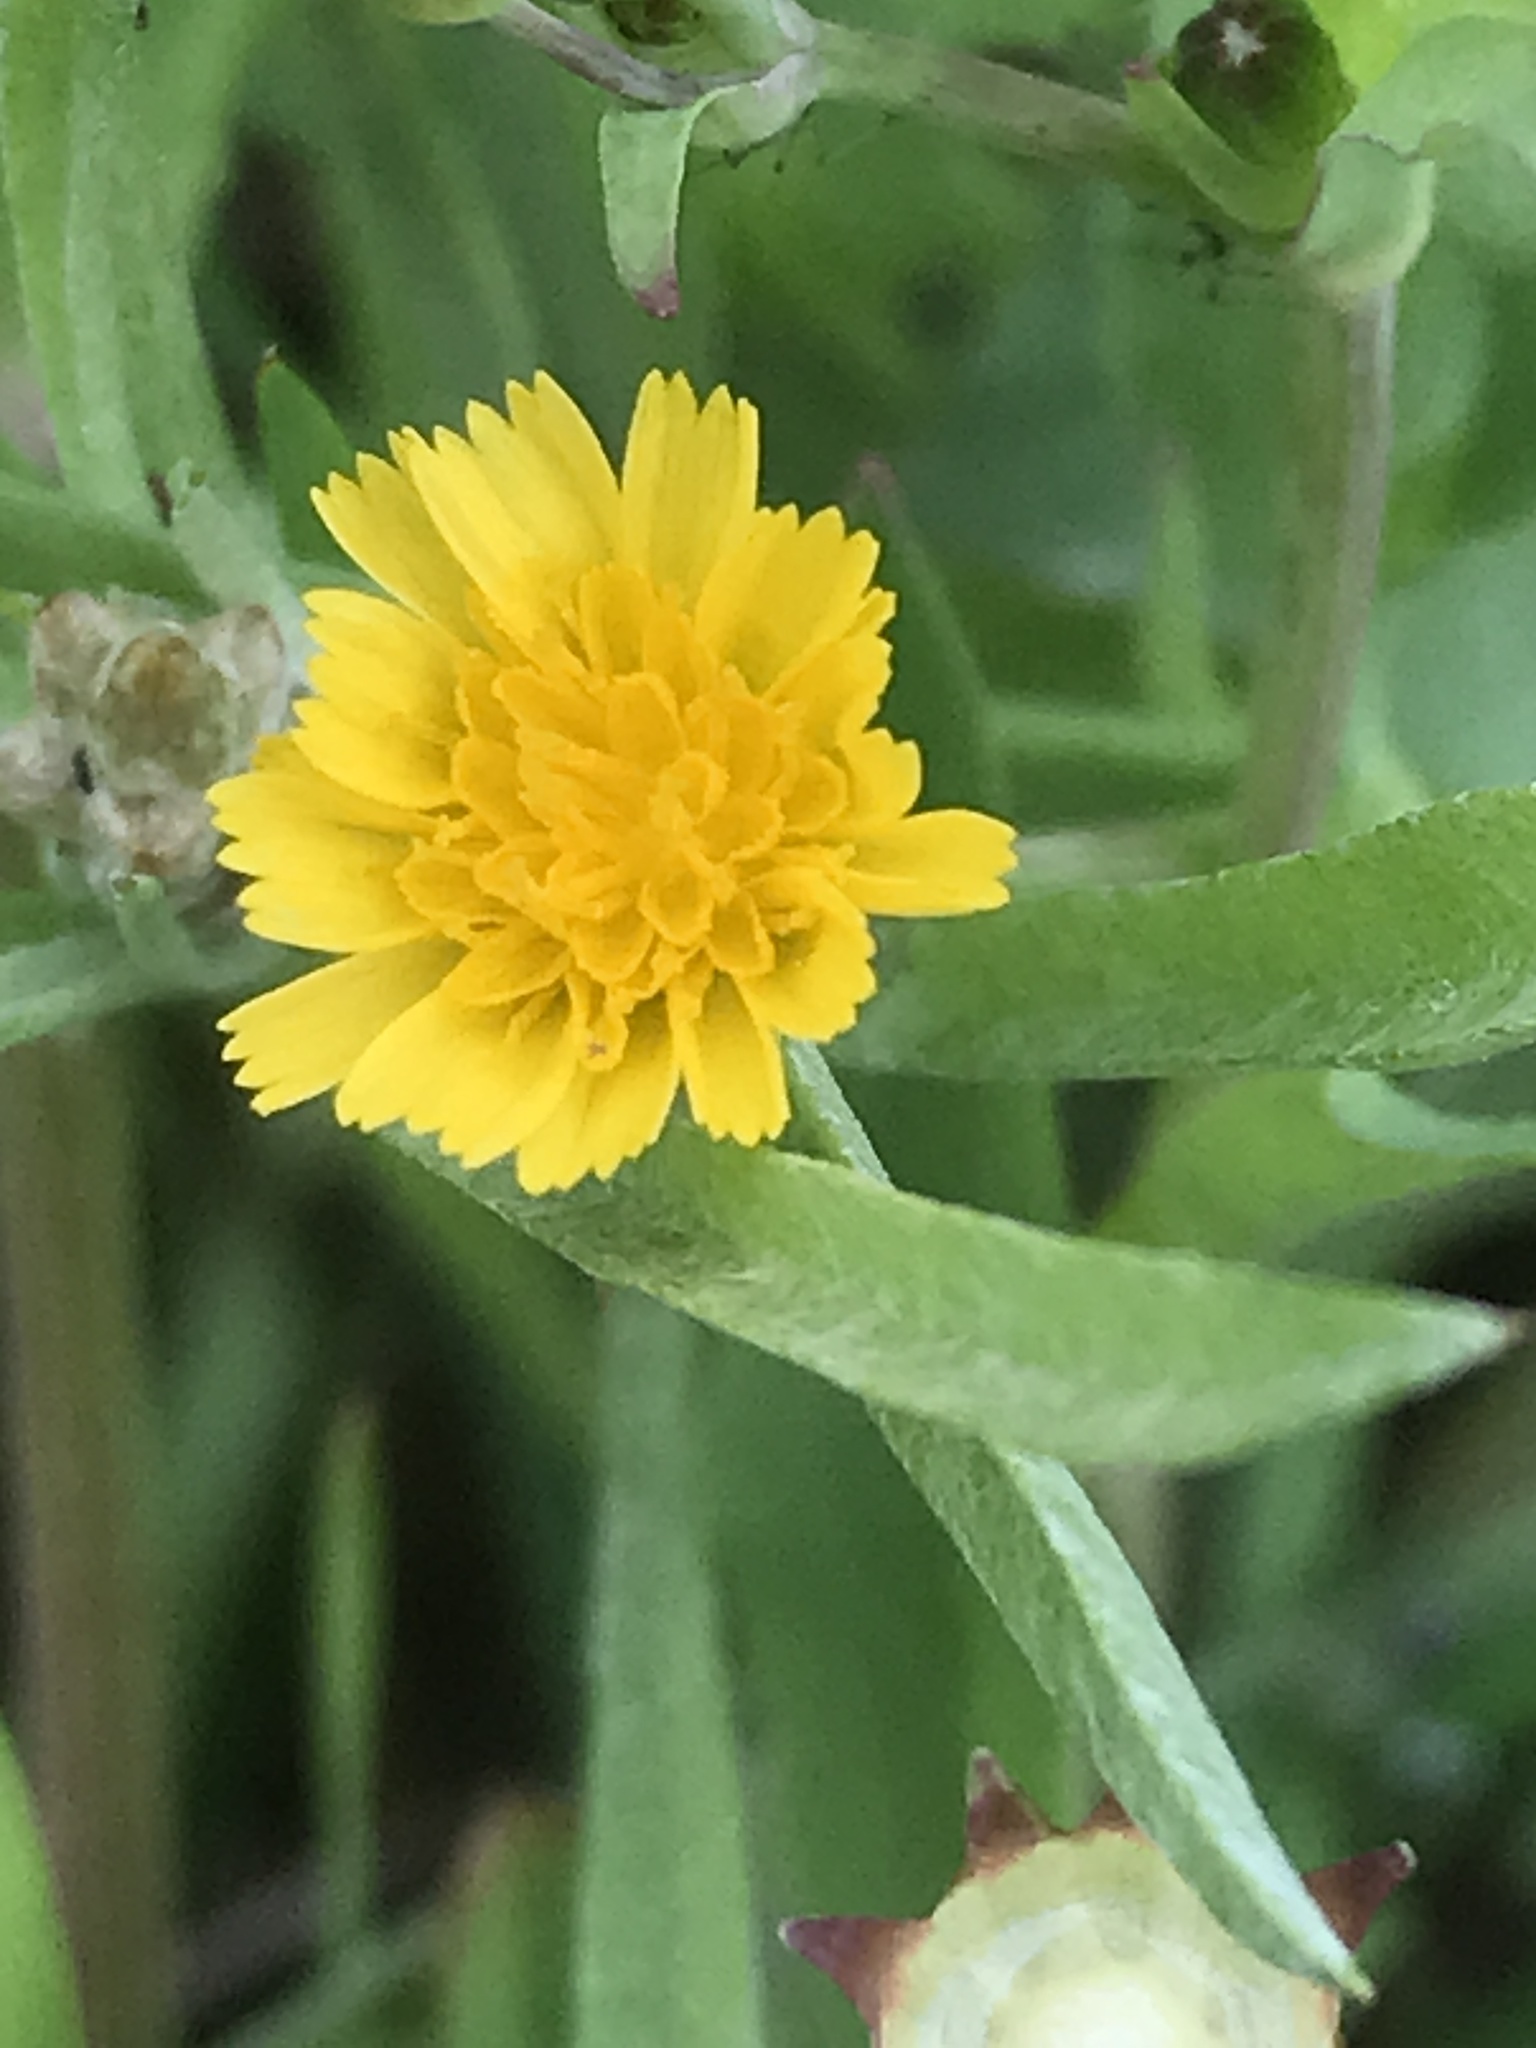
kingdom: Plantae
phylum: Tracheophyta
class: Magnoliopsida
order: Asterales
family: Asteraceae
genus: Krigia
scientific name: Krigia cespitosa
